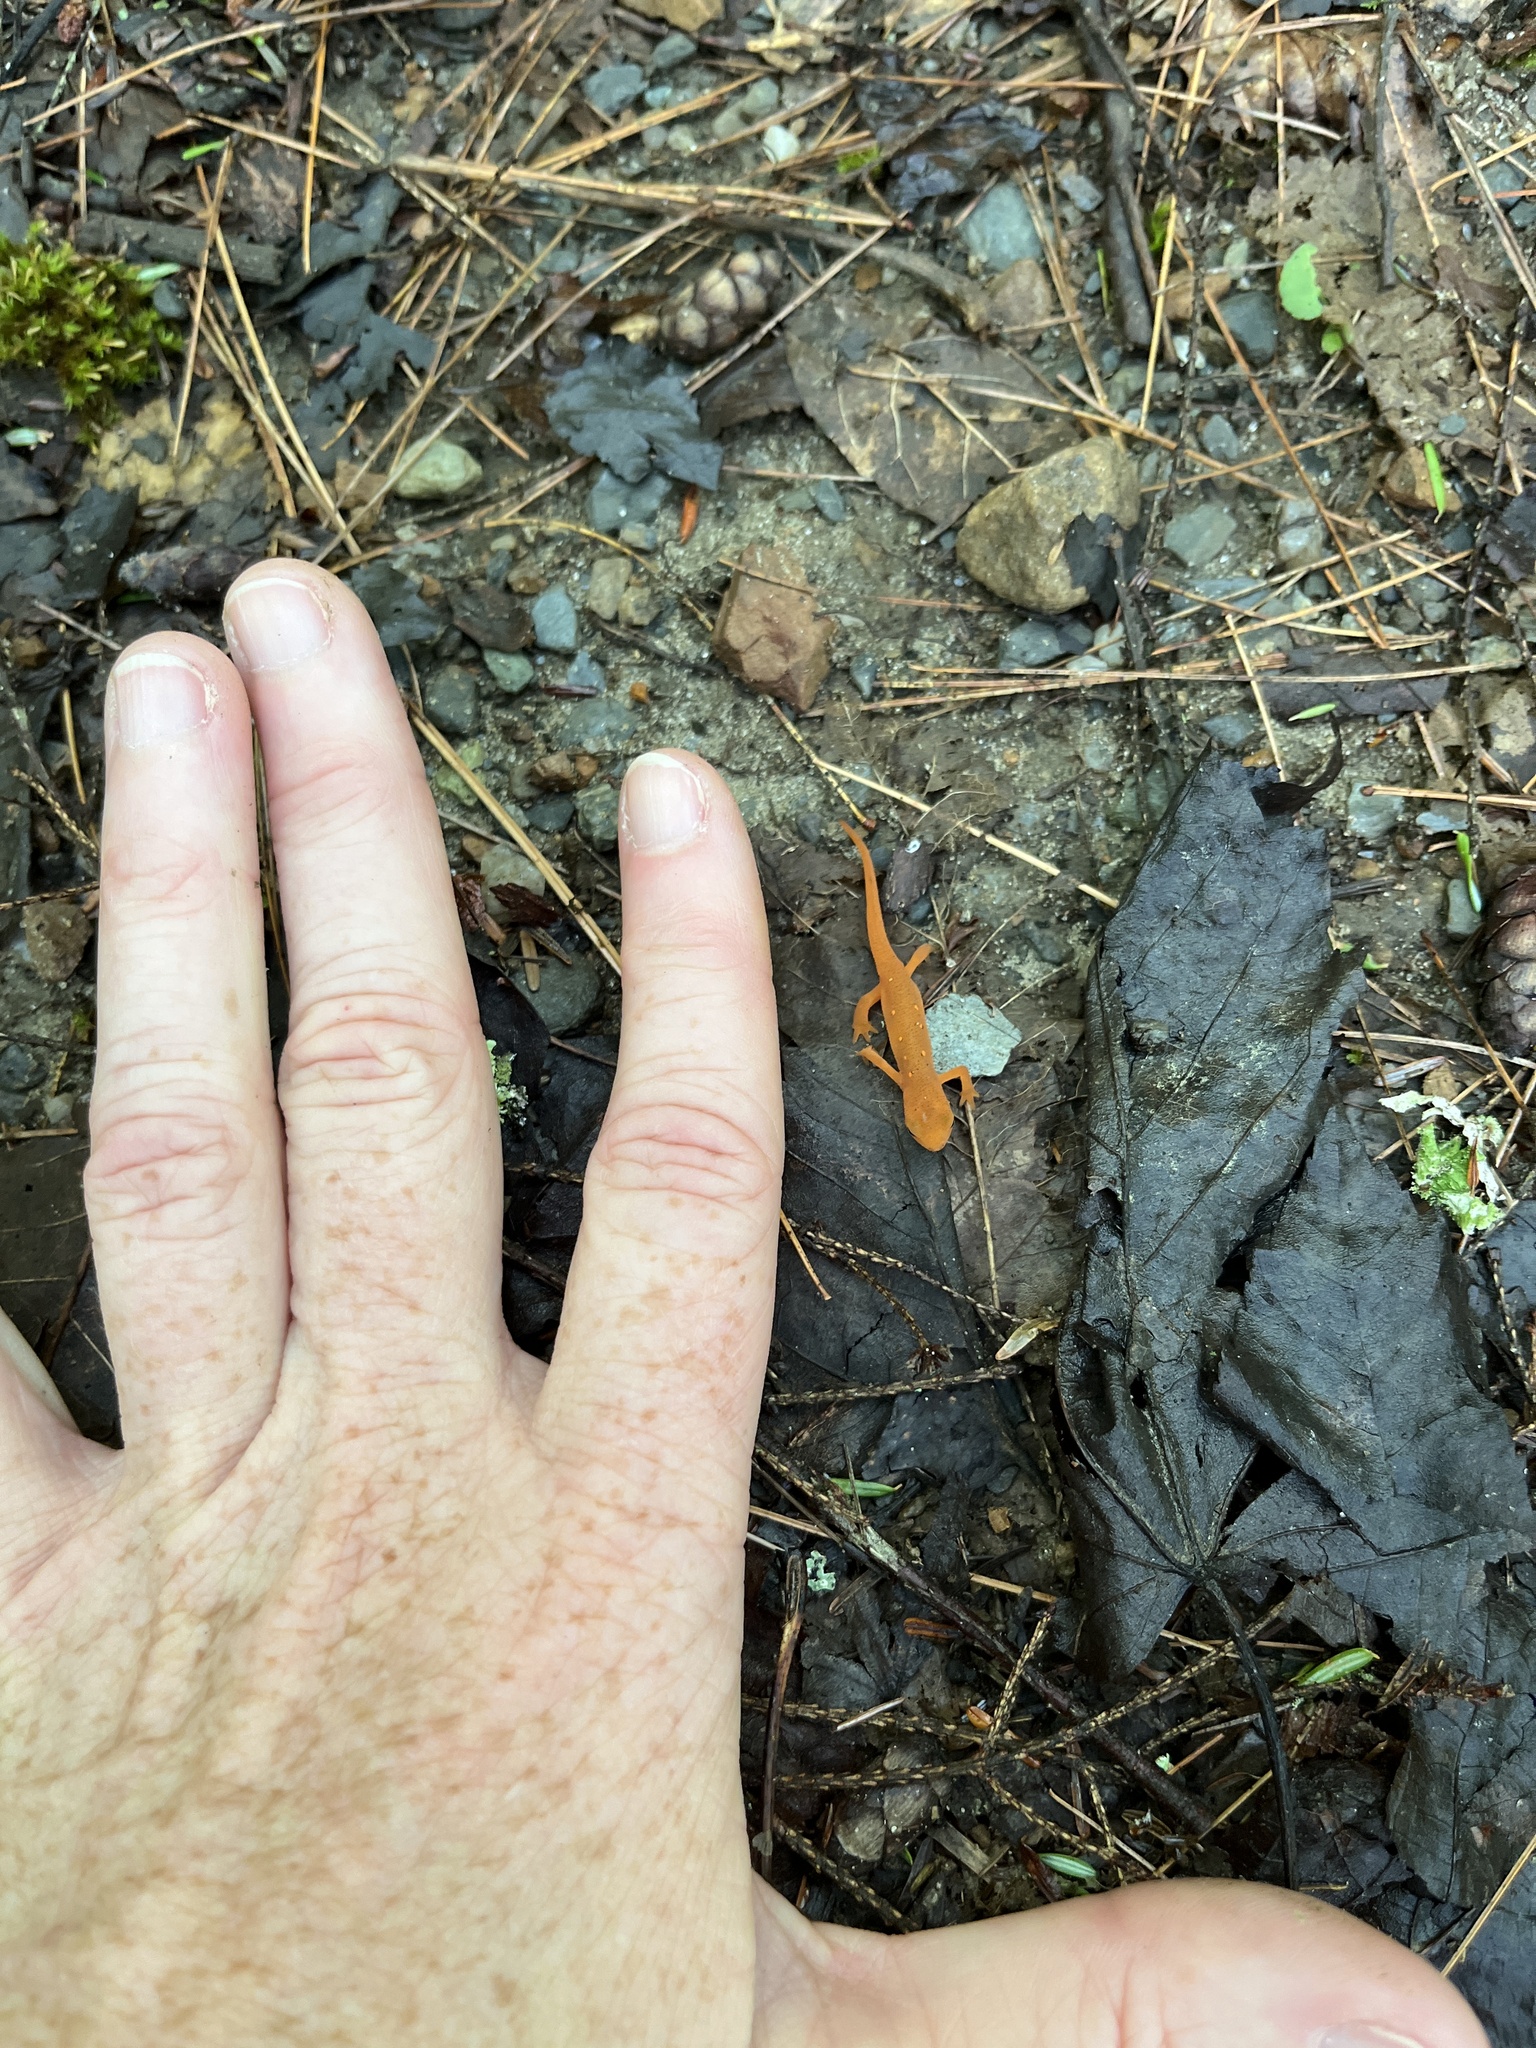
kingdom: Animalia
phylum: Chordata
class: Amphibia
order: Caudata
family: Salamandridae
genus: Notophthalmus
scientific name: Notophthalmus viridescens
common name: Eastern newt
